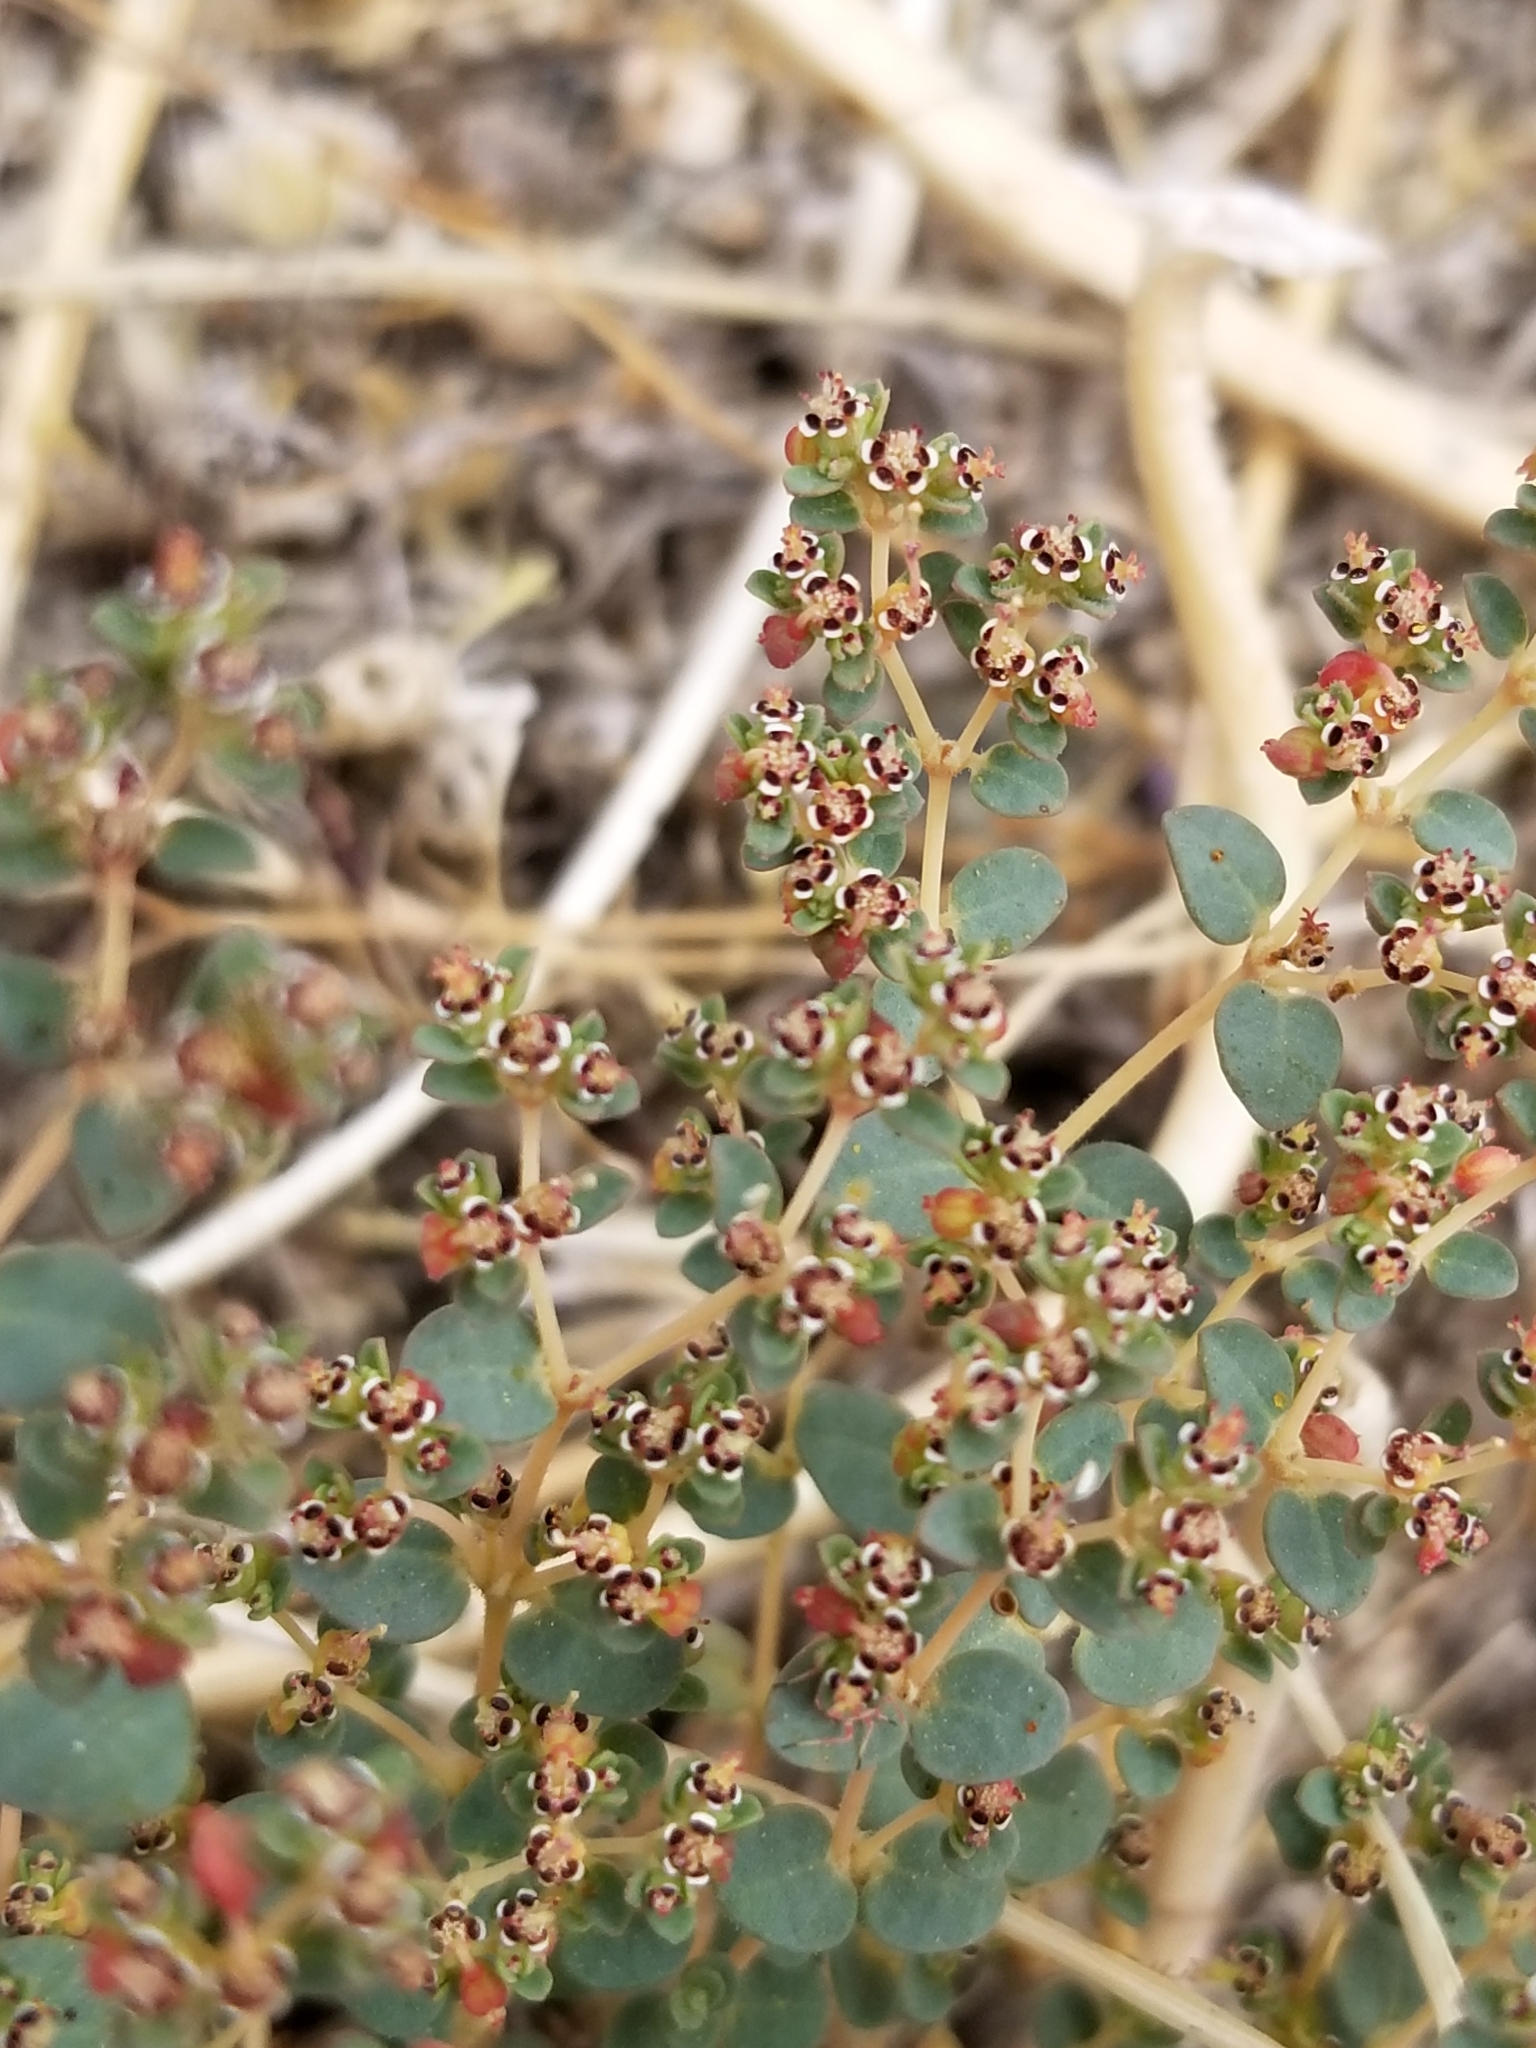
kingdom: Plantae
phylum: Tracheophyta
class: Magnoliopsida
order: Malpighiales
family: Euphorbiaceae
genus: Euphorbia
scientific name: Euphorbia polycarpa
